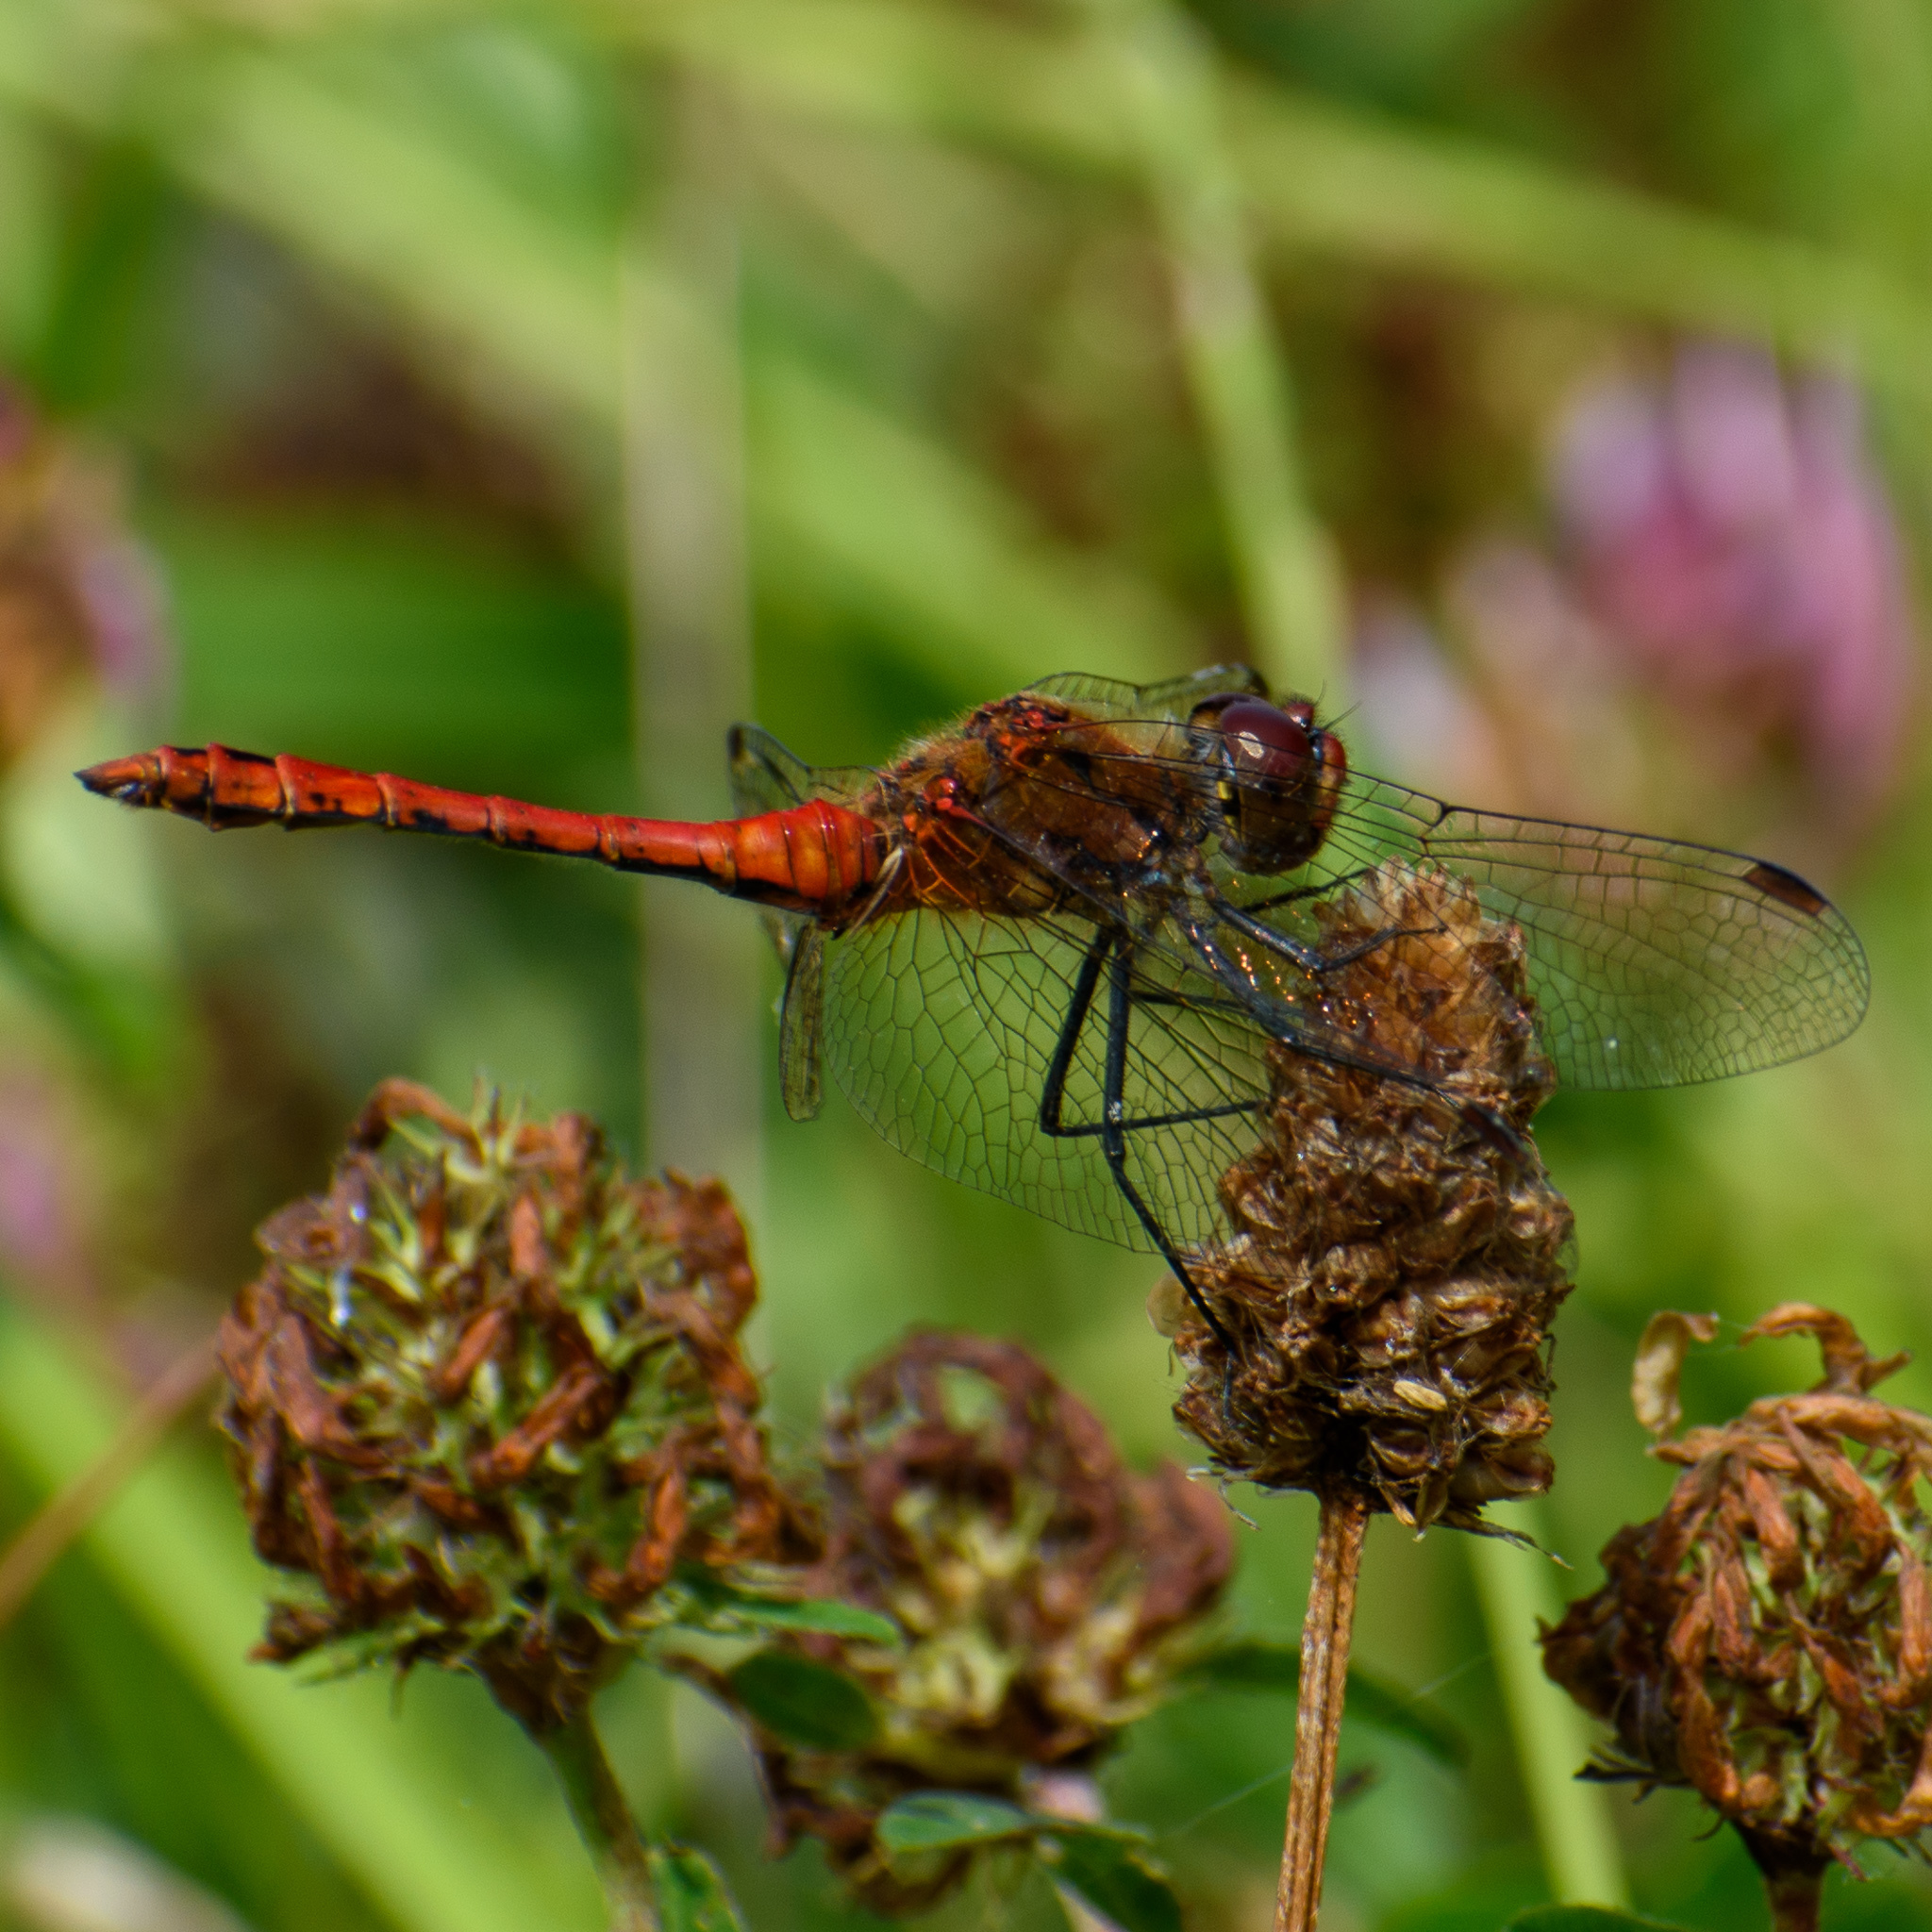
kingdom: Animalia
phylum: Arthropoda
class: Insecta
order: Odonata
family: Libellulidae
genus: Sympetrum
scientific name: Sympetrum sanguineum
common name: Ruddy darter
